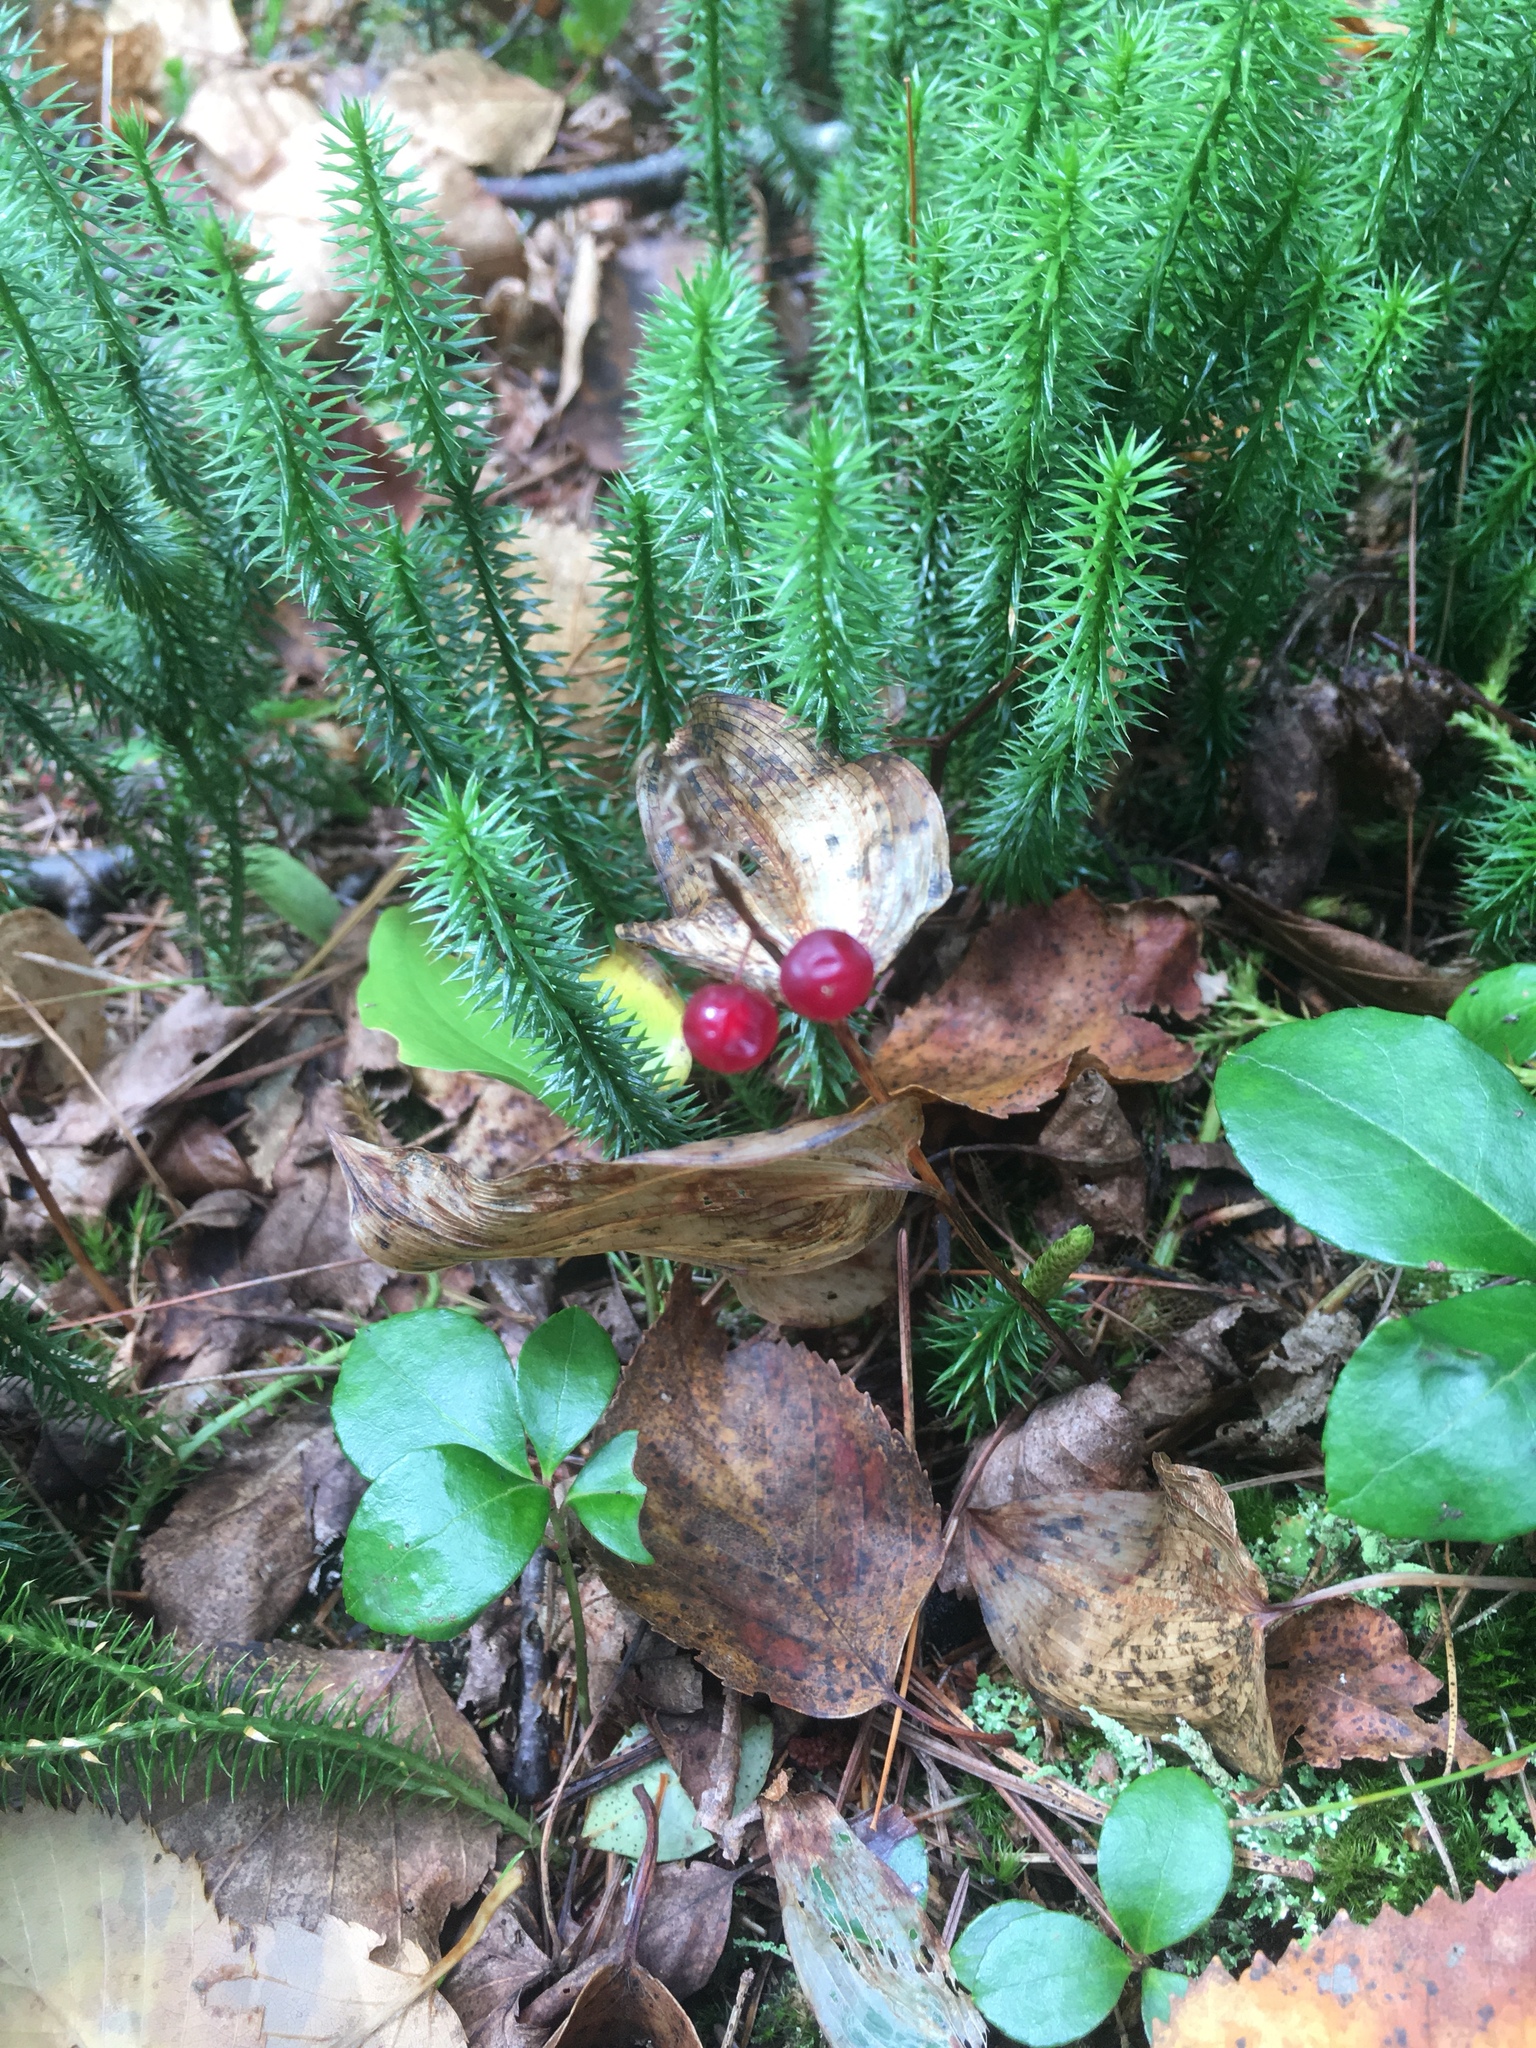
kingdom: Plantae
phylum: Tracheophyta
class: Liliopsida
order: Asparagales
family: Asparagaceae
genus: Maianthemum
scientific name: Maianthemum canadense
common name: False lily-of-the-valley
